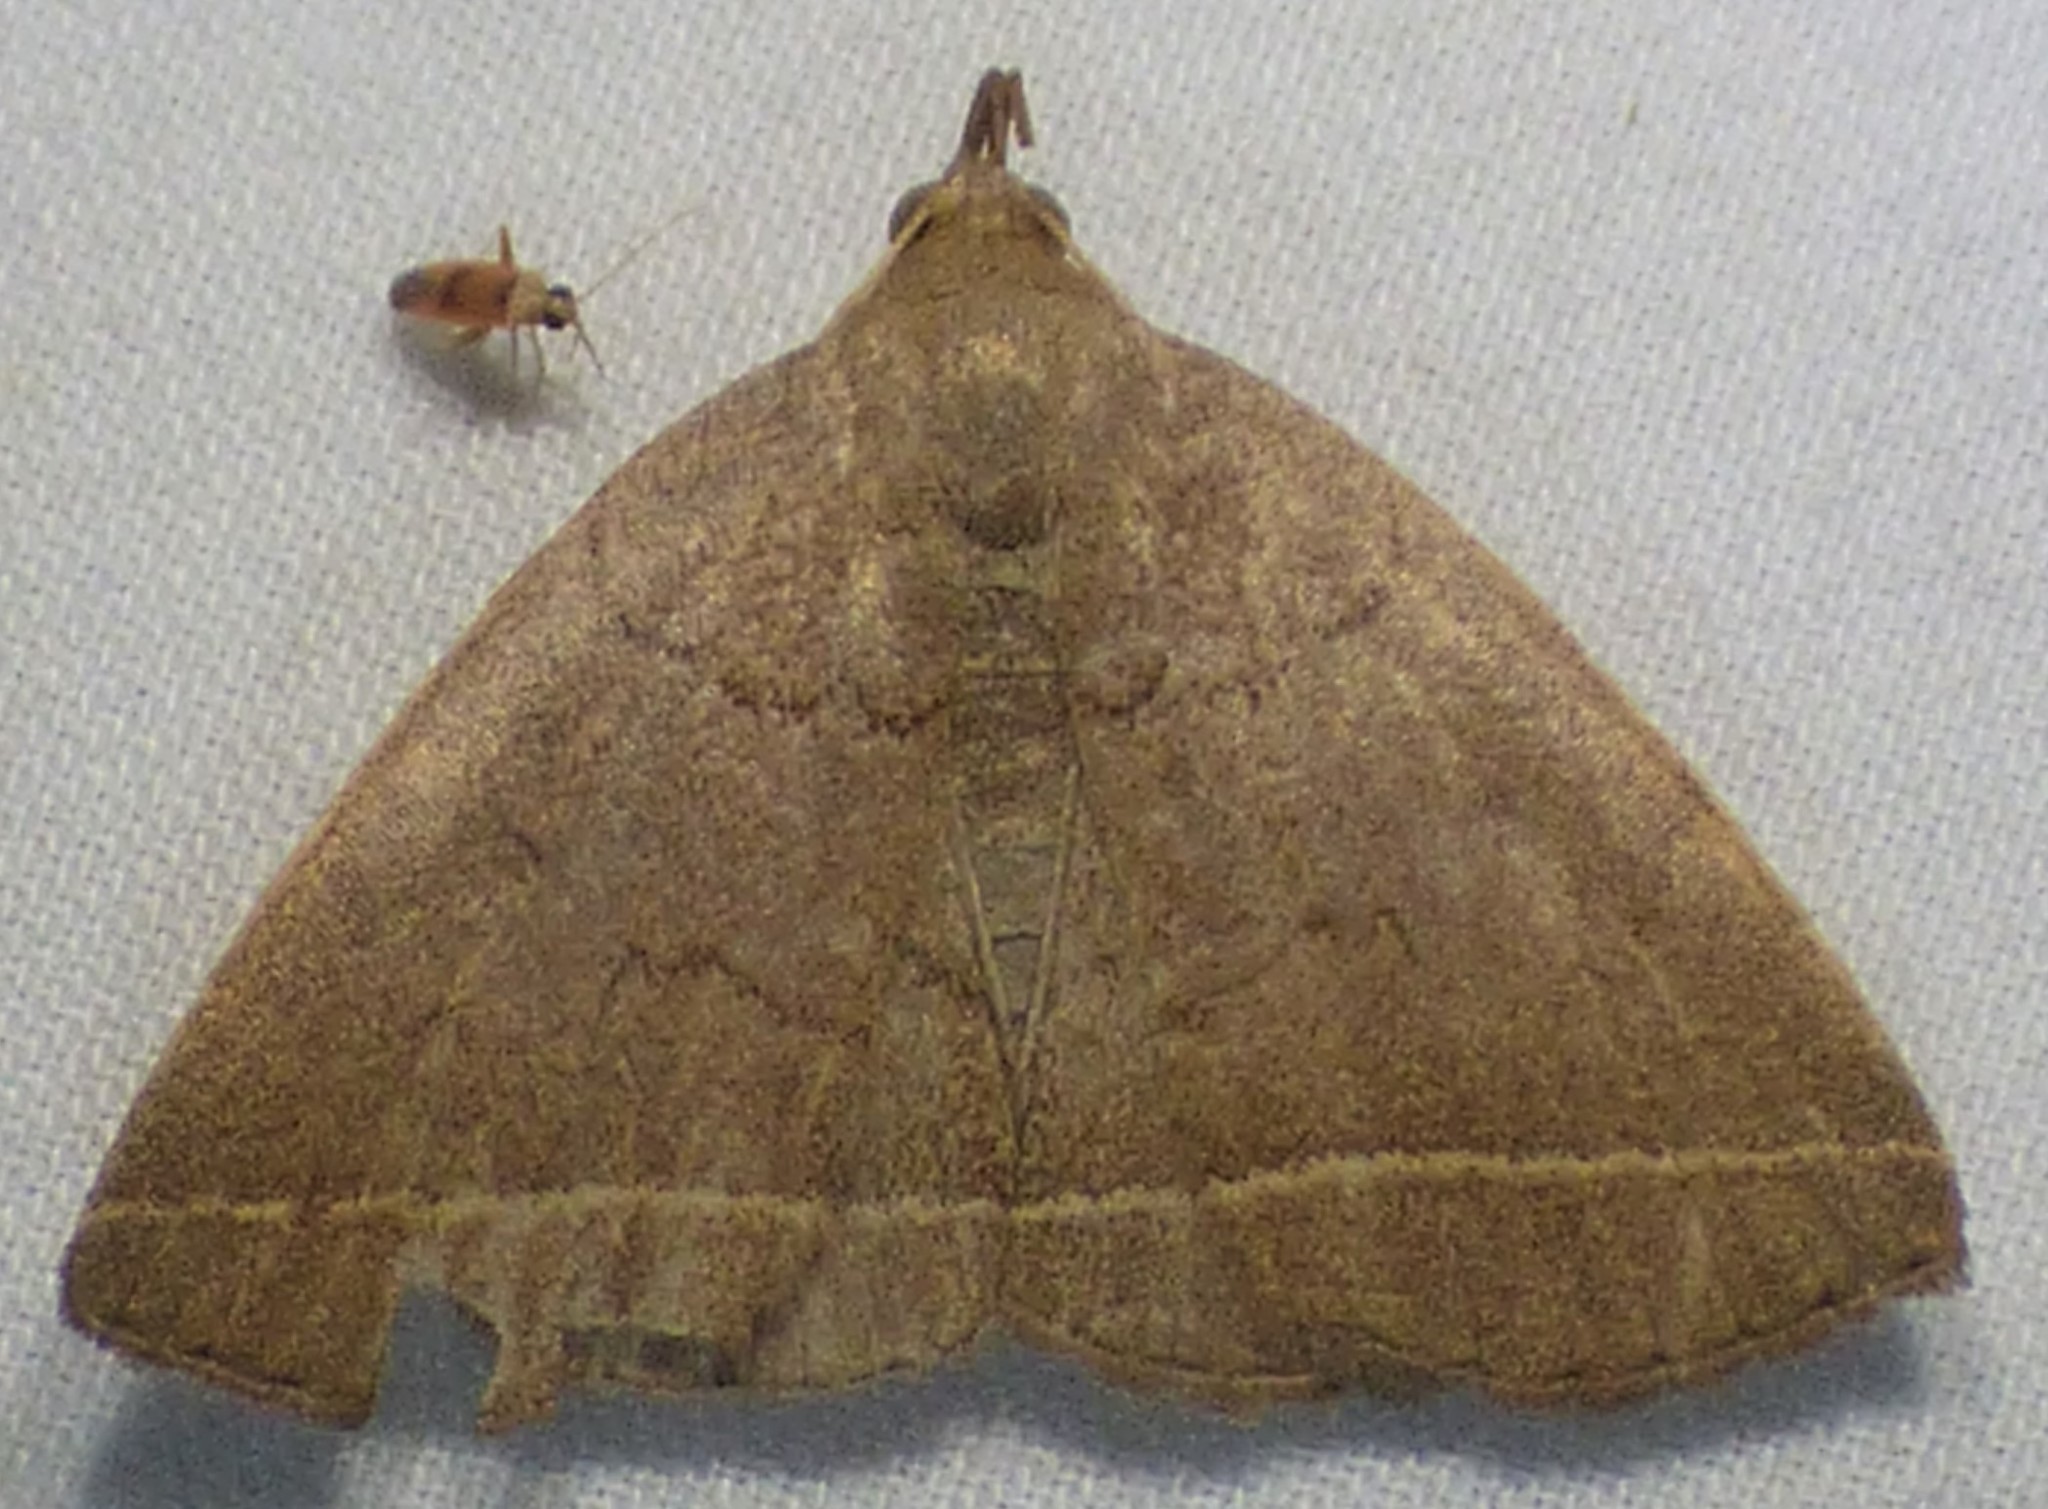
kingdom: Animalia
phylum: Arthropoda
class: Insecta
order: Lepidoptera
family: Erebidae
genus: Zanclognatha
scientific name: Zanclognatha marcidilinea
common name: Yellowish fan-foot
